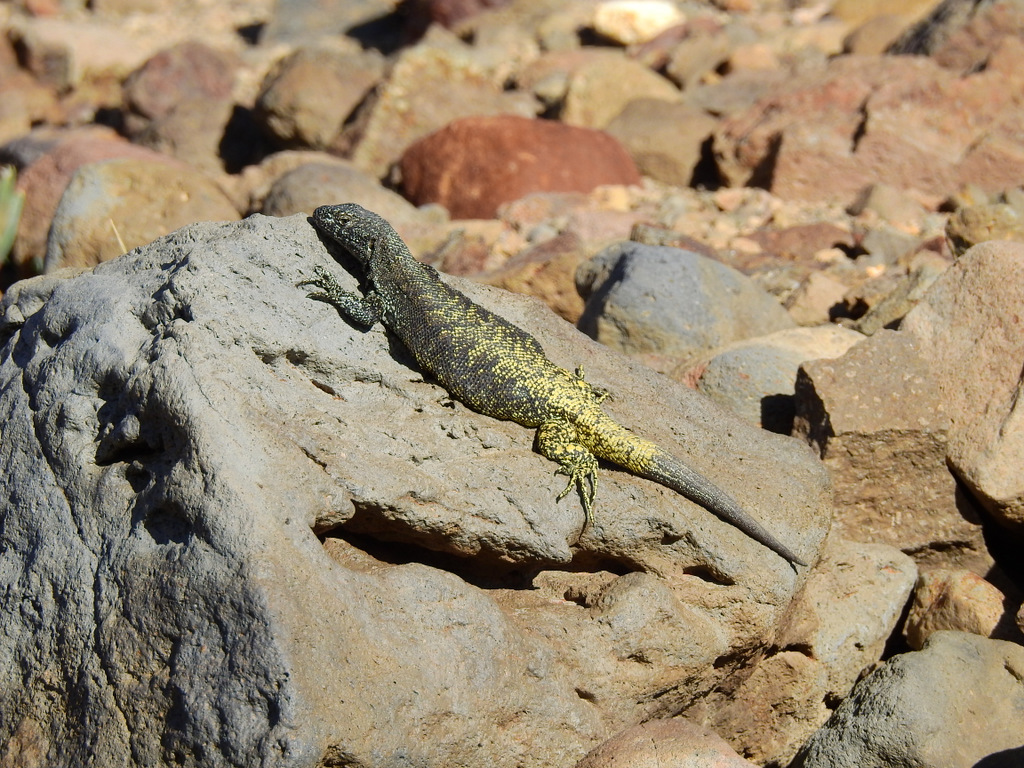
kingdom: Animalia
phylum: Chordata
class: Squamata
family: Liolaemidae
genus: Liolaemus
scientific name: Liolaemus flavipiceus
